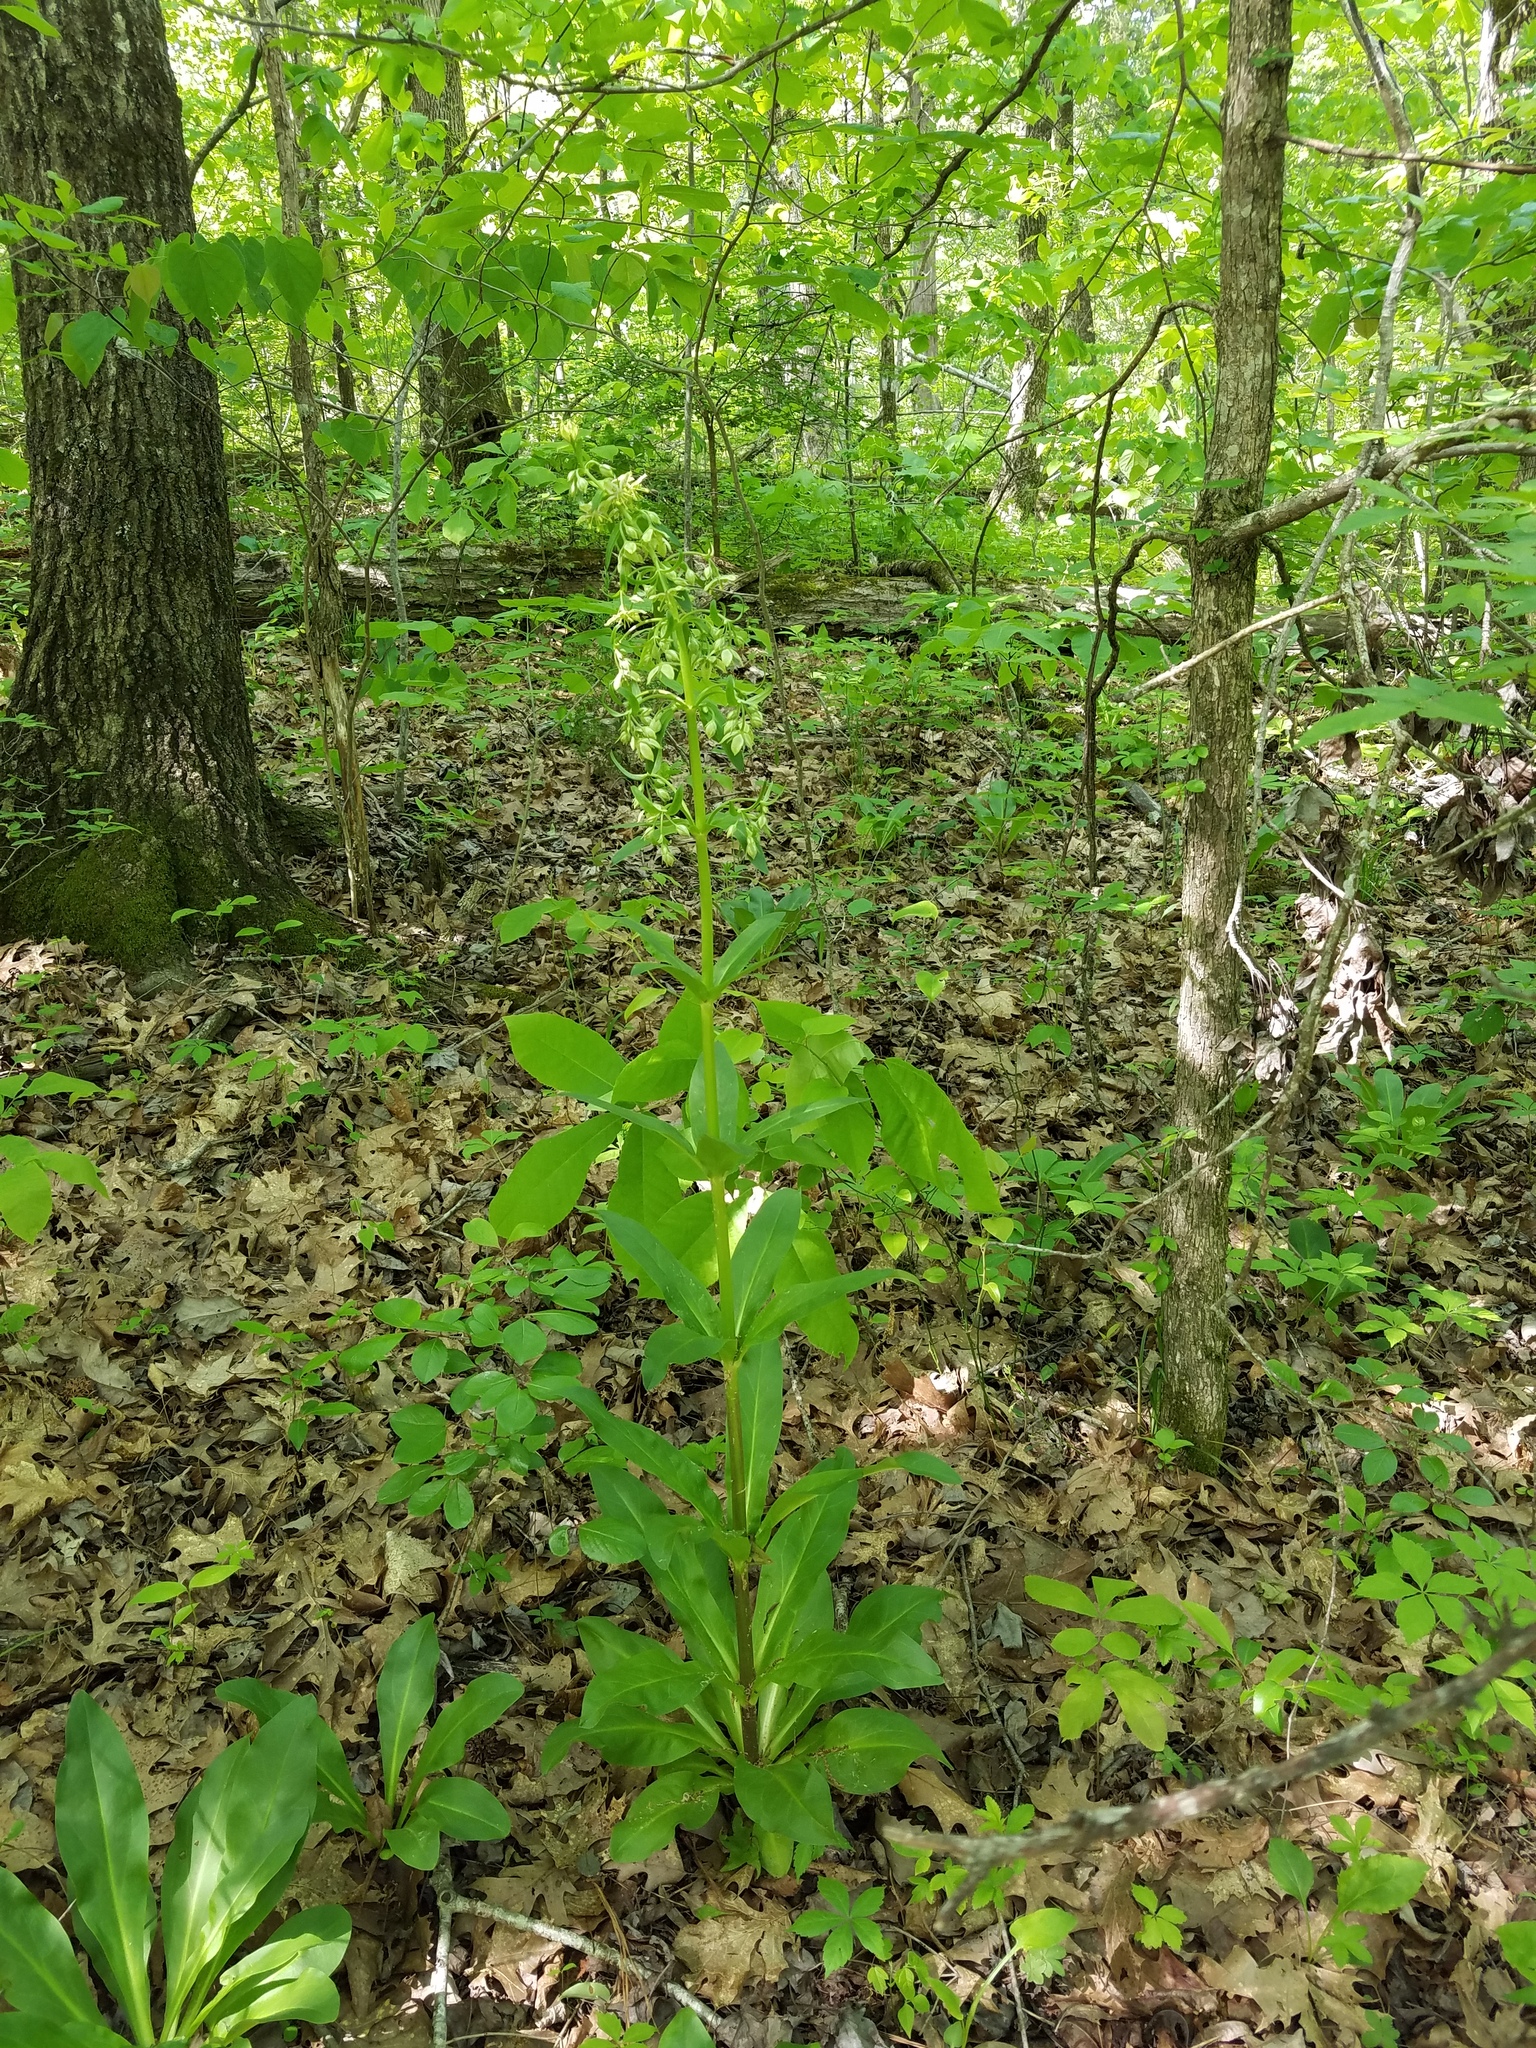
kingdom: Plantae
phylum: Tracheophyta
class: Magnoliopsida
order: Gentianales
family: Gentianaceae
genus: Frasera
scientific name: Frasera caroliniensis
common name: American columbo
